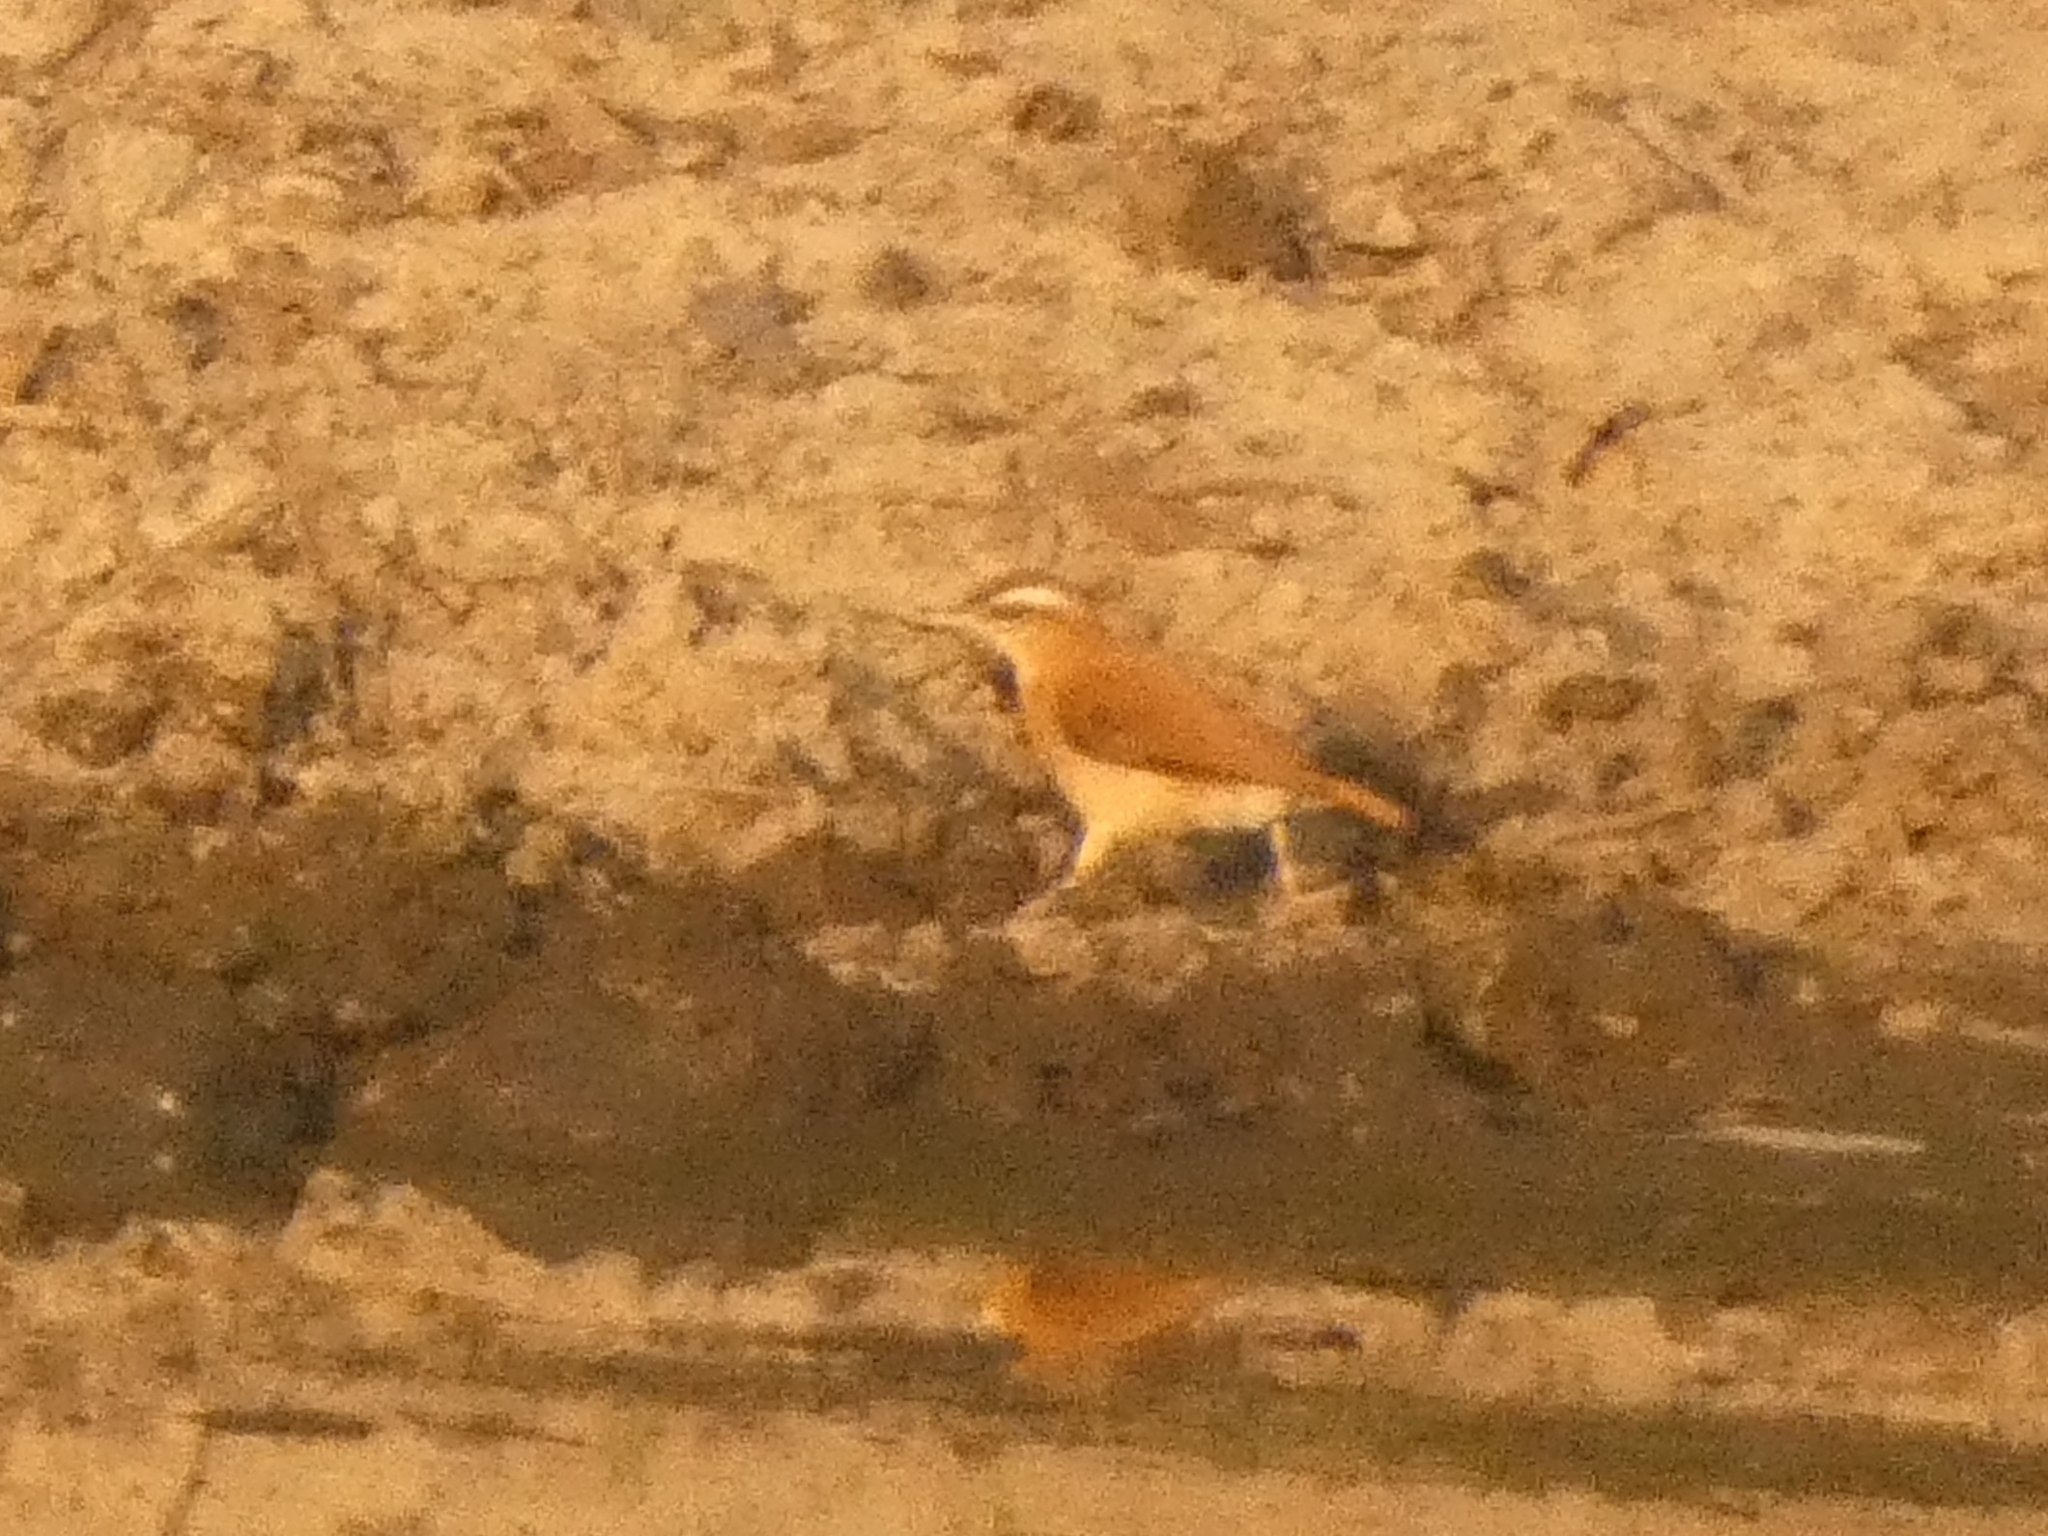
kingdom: Animalia
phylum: Chordata
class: Aves
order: Passeriformes
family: Furnariidae
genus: Furnarius
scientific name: Furnarius leucopus
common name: Pale-legged hornero
